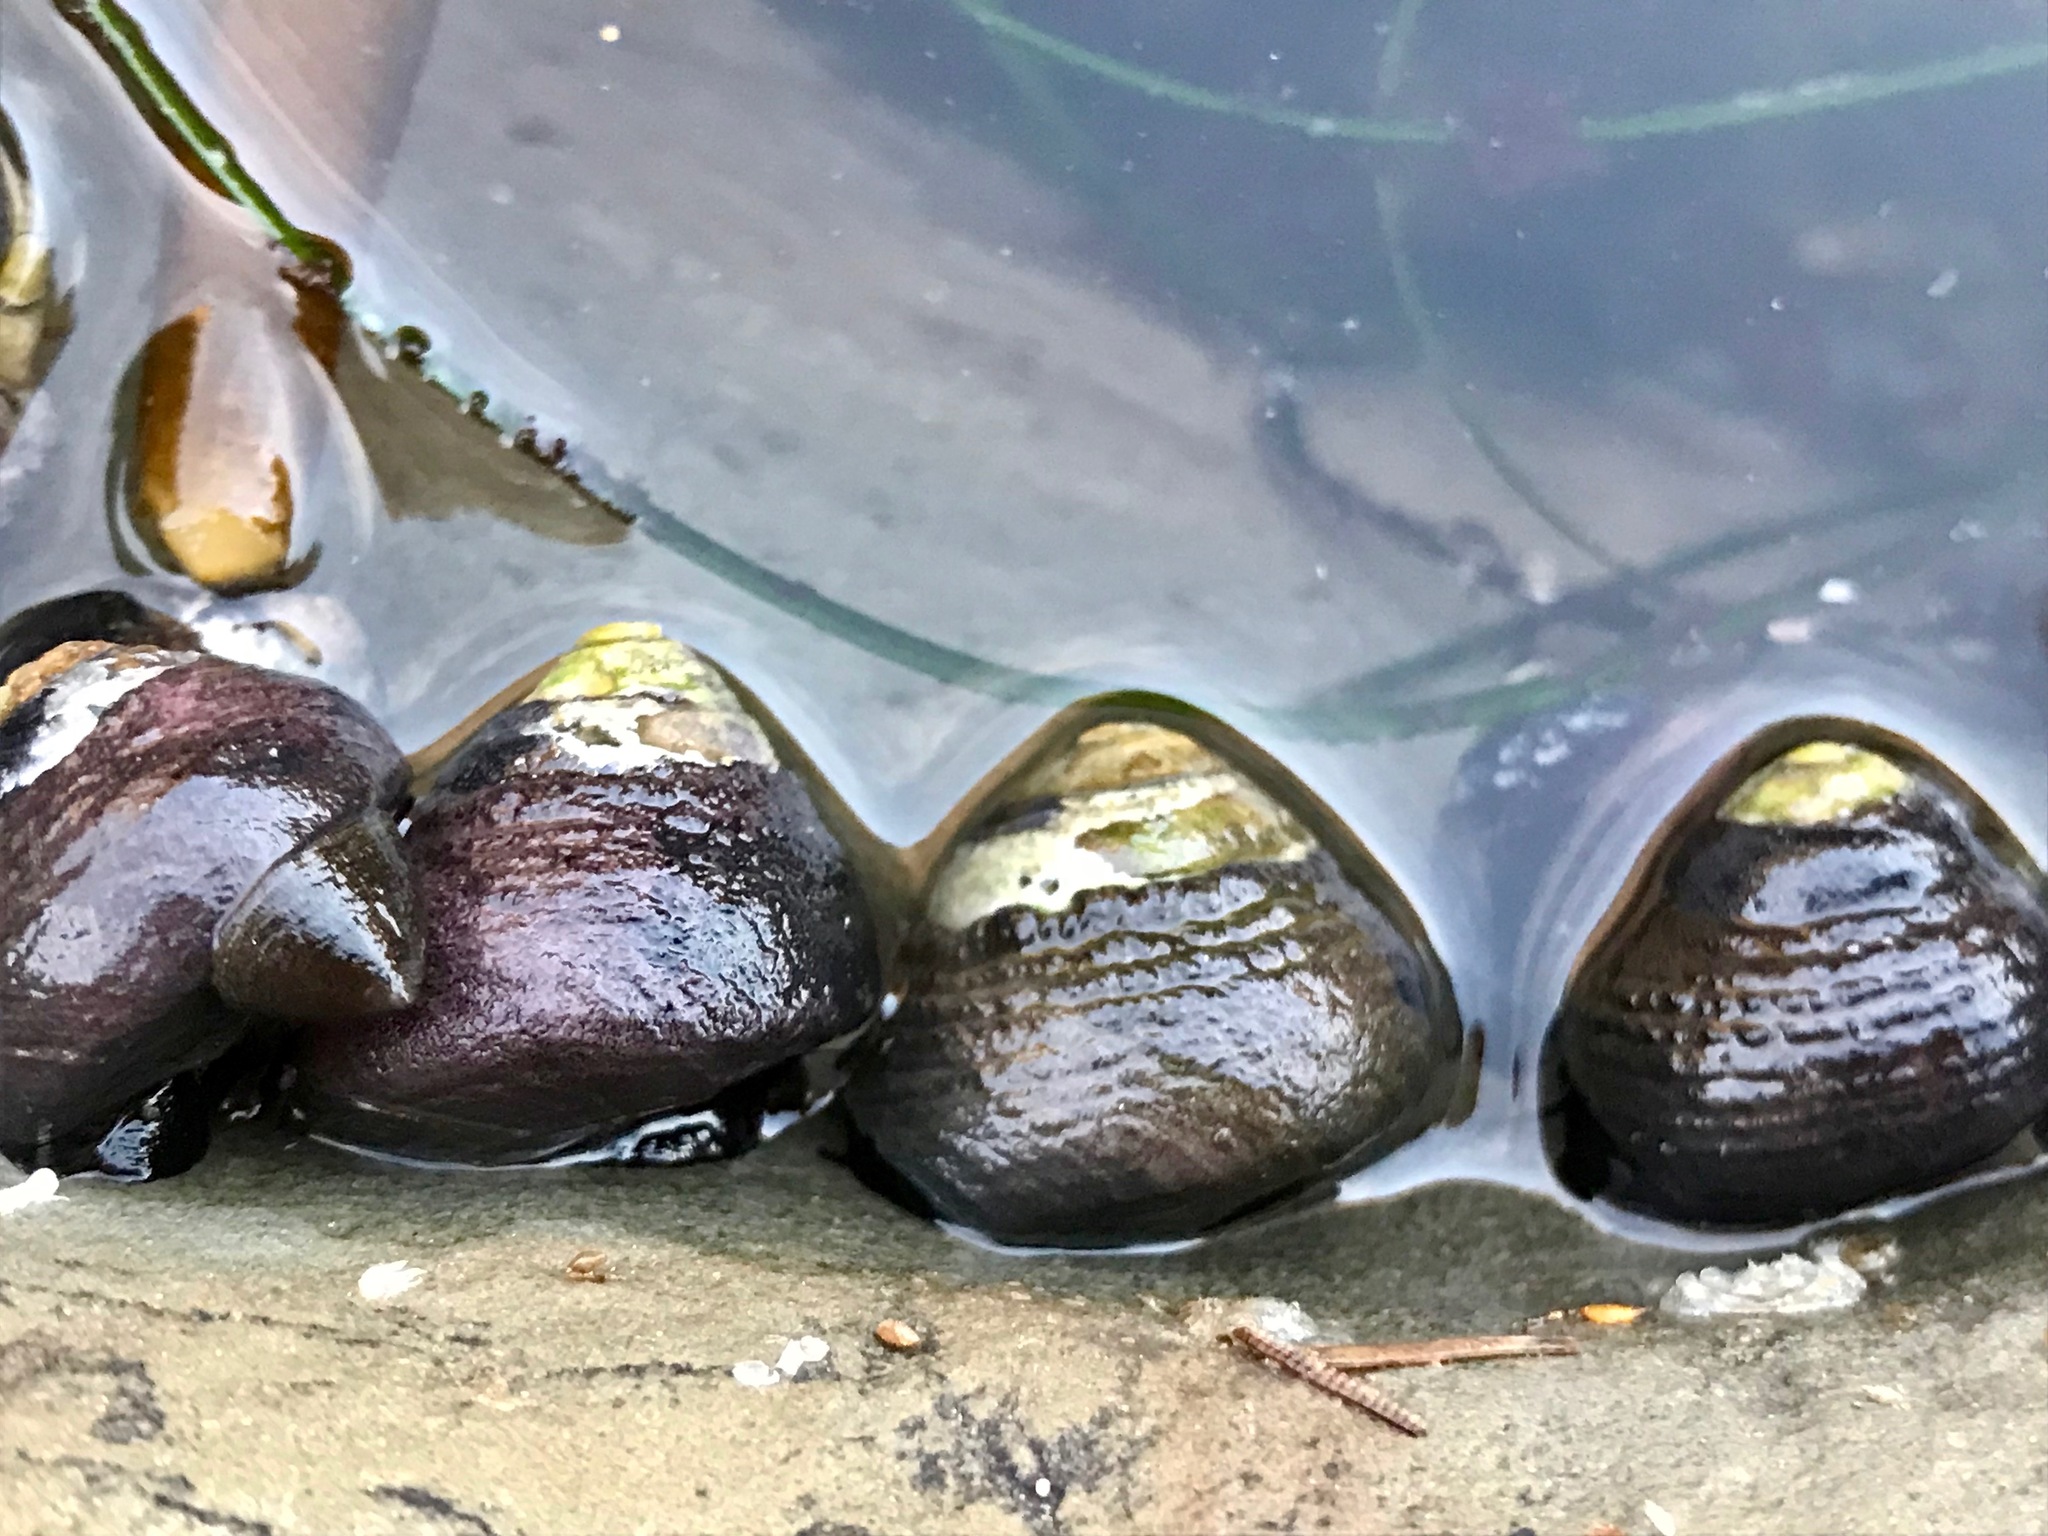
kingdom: Animalia
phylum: Mollusca
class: Gastropoda
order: Trochida
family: Tegulidae
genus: Tegula
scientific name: Tegula funebralis
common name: Black tegula
